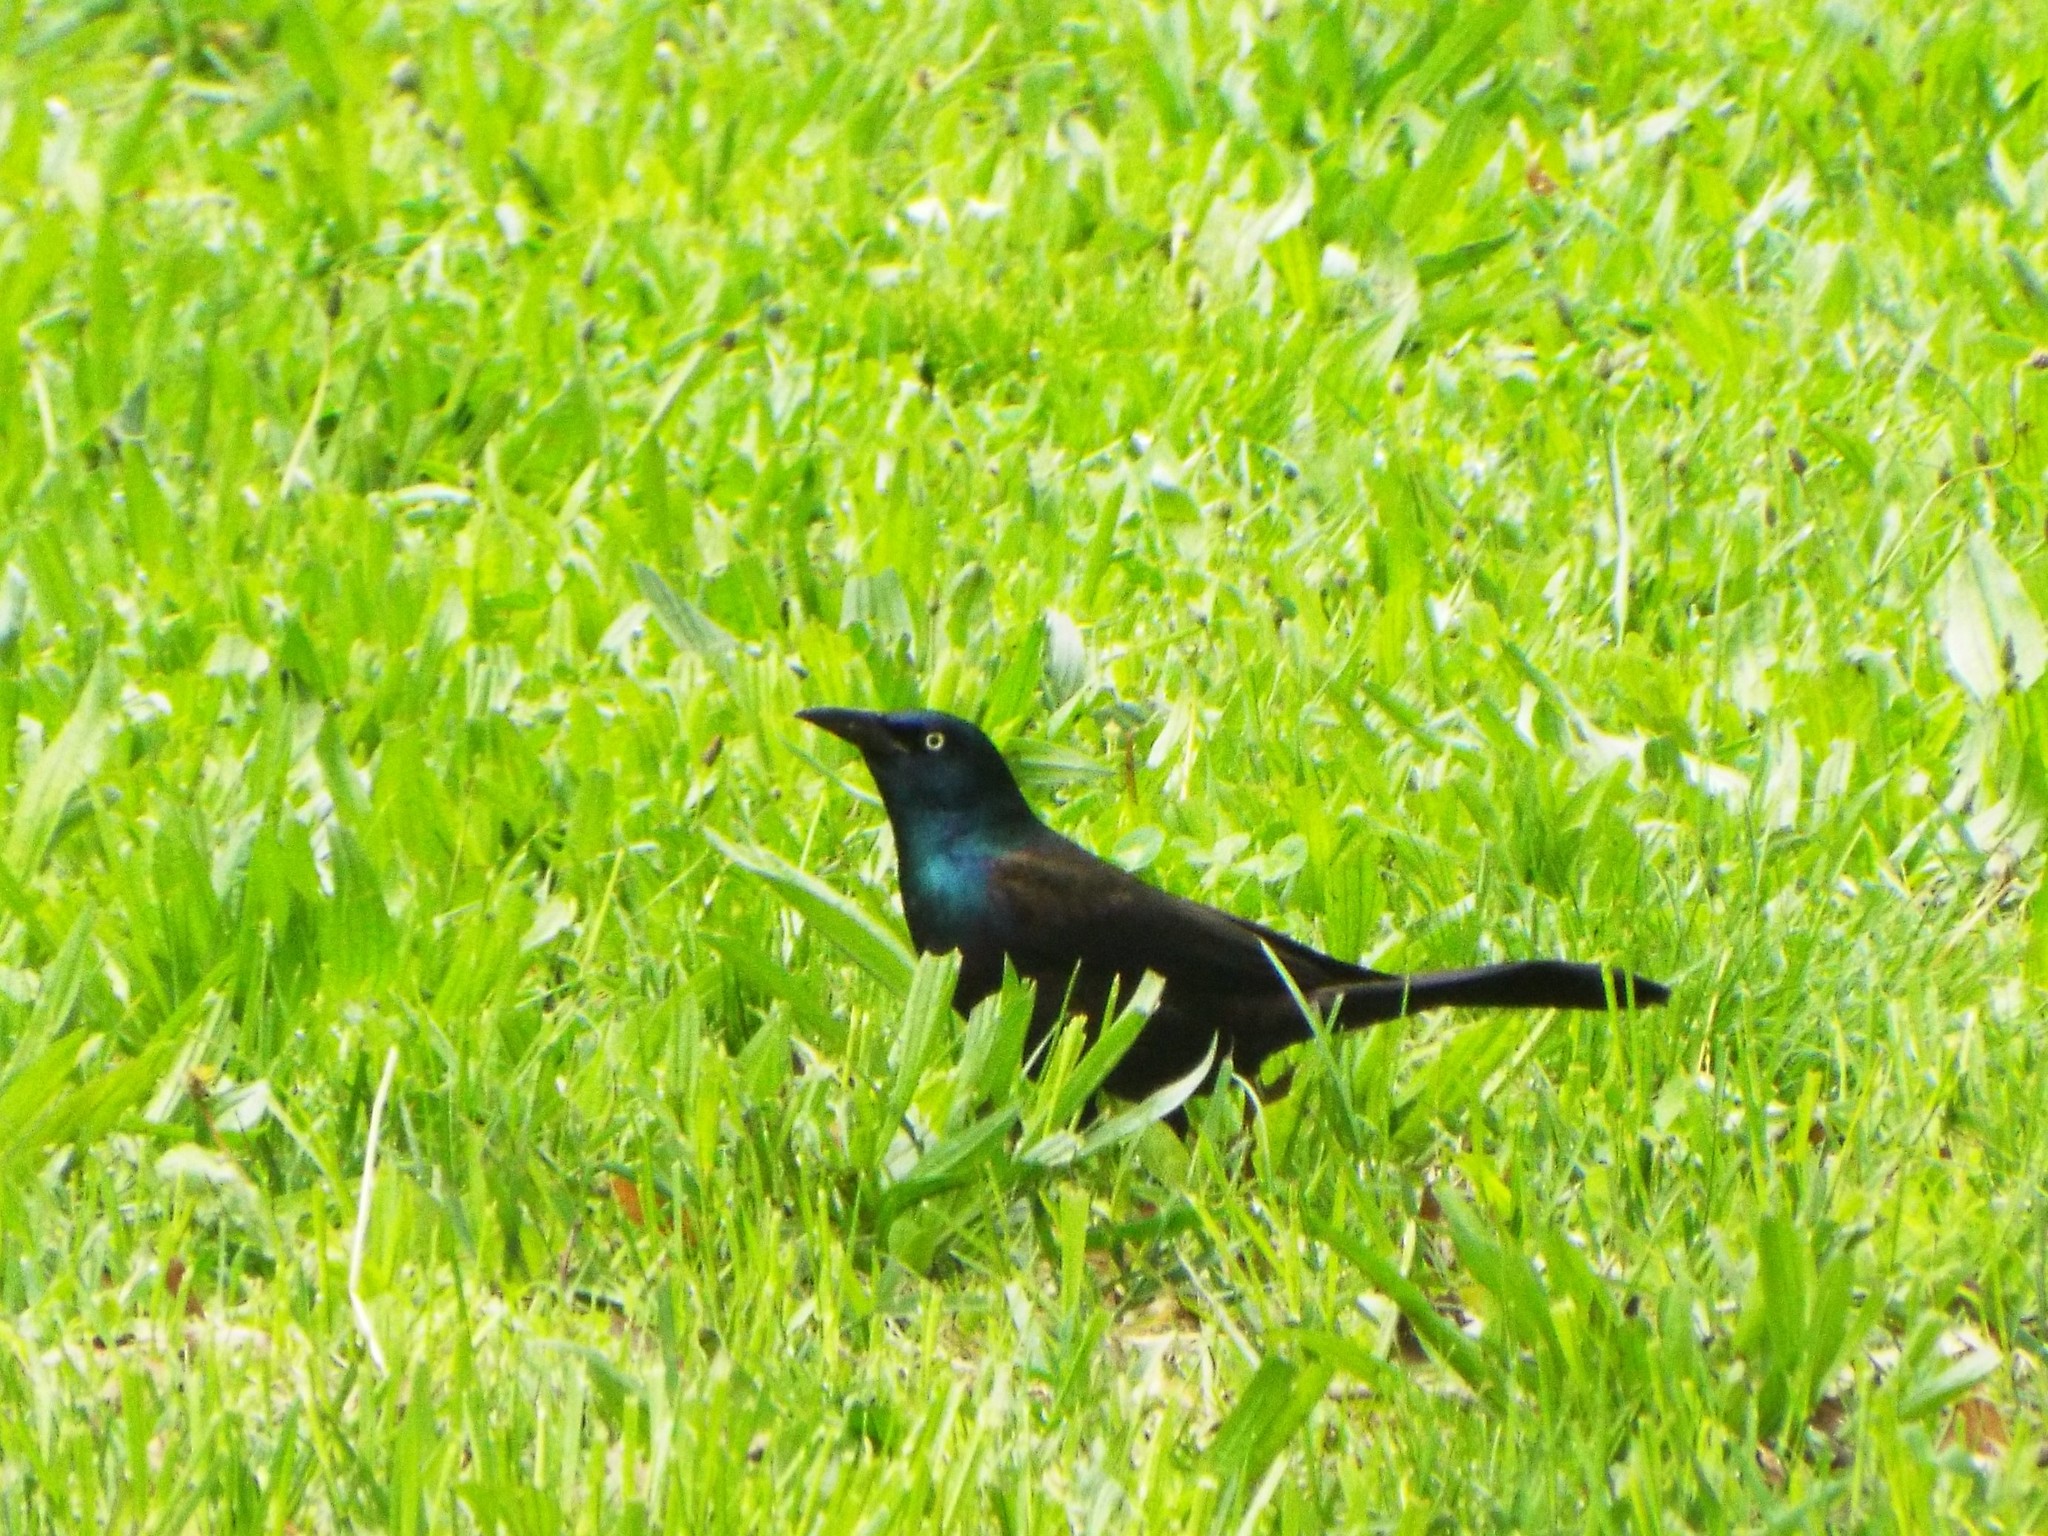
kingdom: Animalia
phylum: Chordata
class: Aves
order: Passeriformes
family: Icteridae
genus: Quiscalus
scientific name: Quiscalus quiscula
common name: Common grackle
